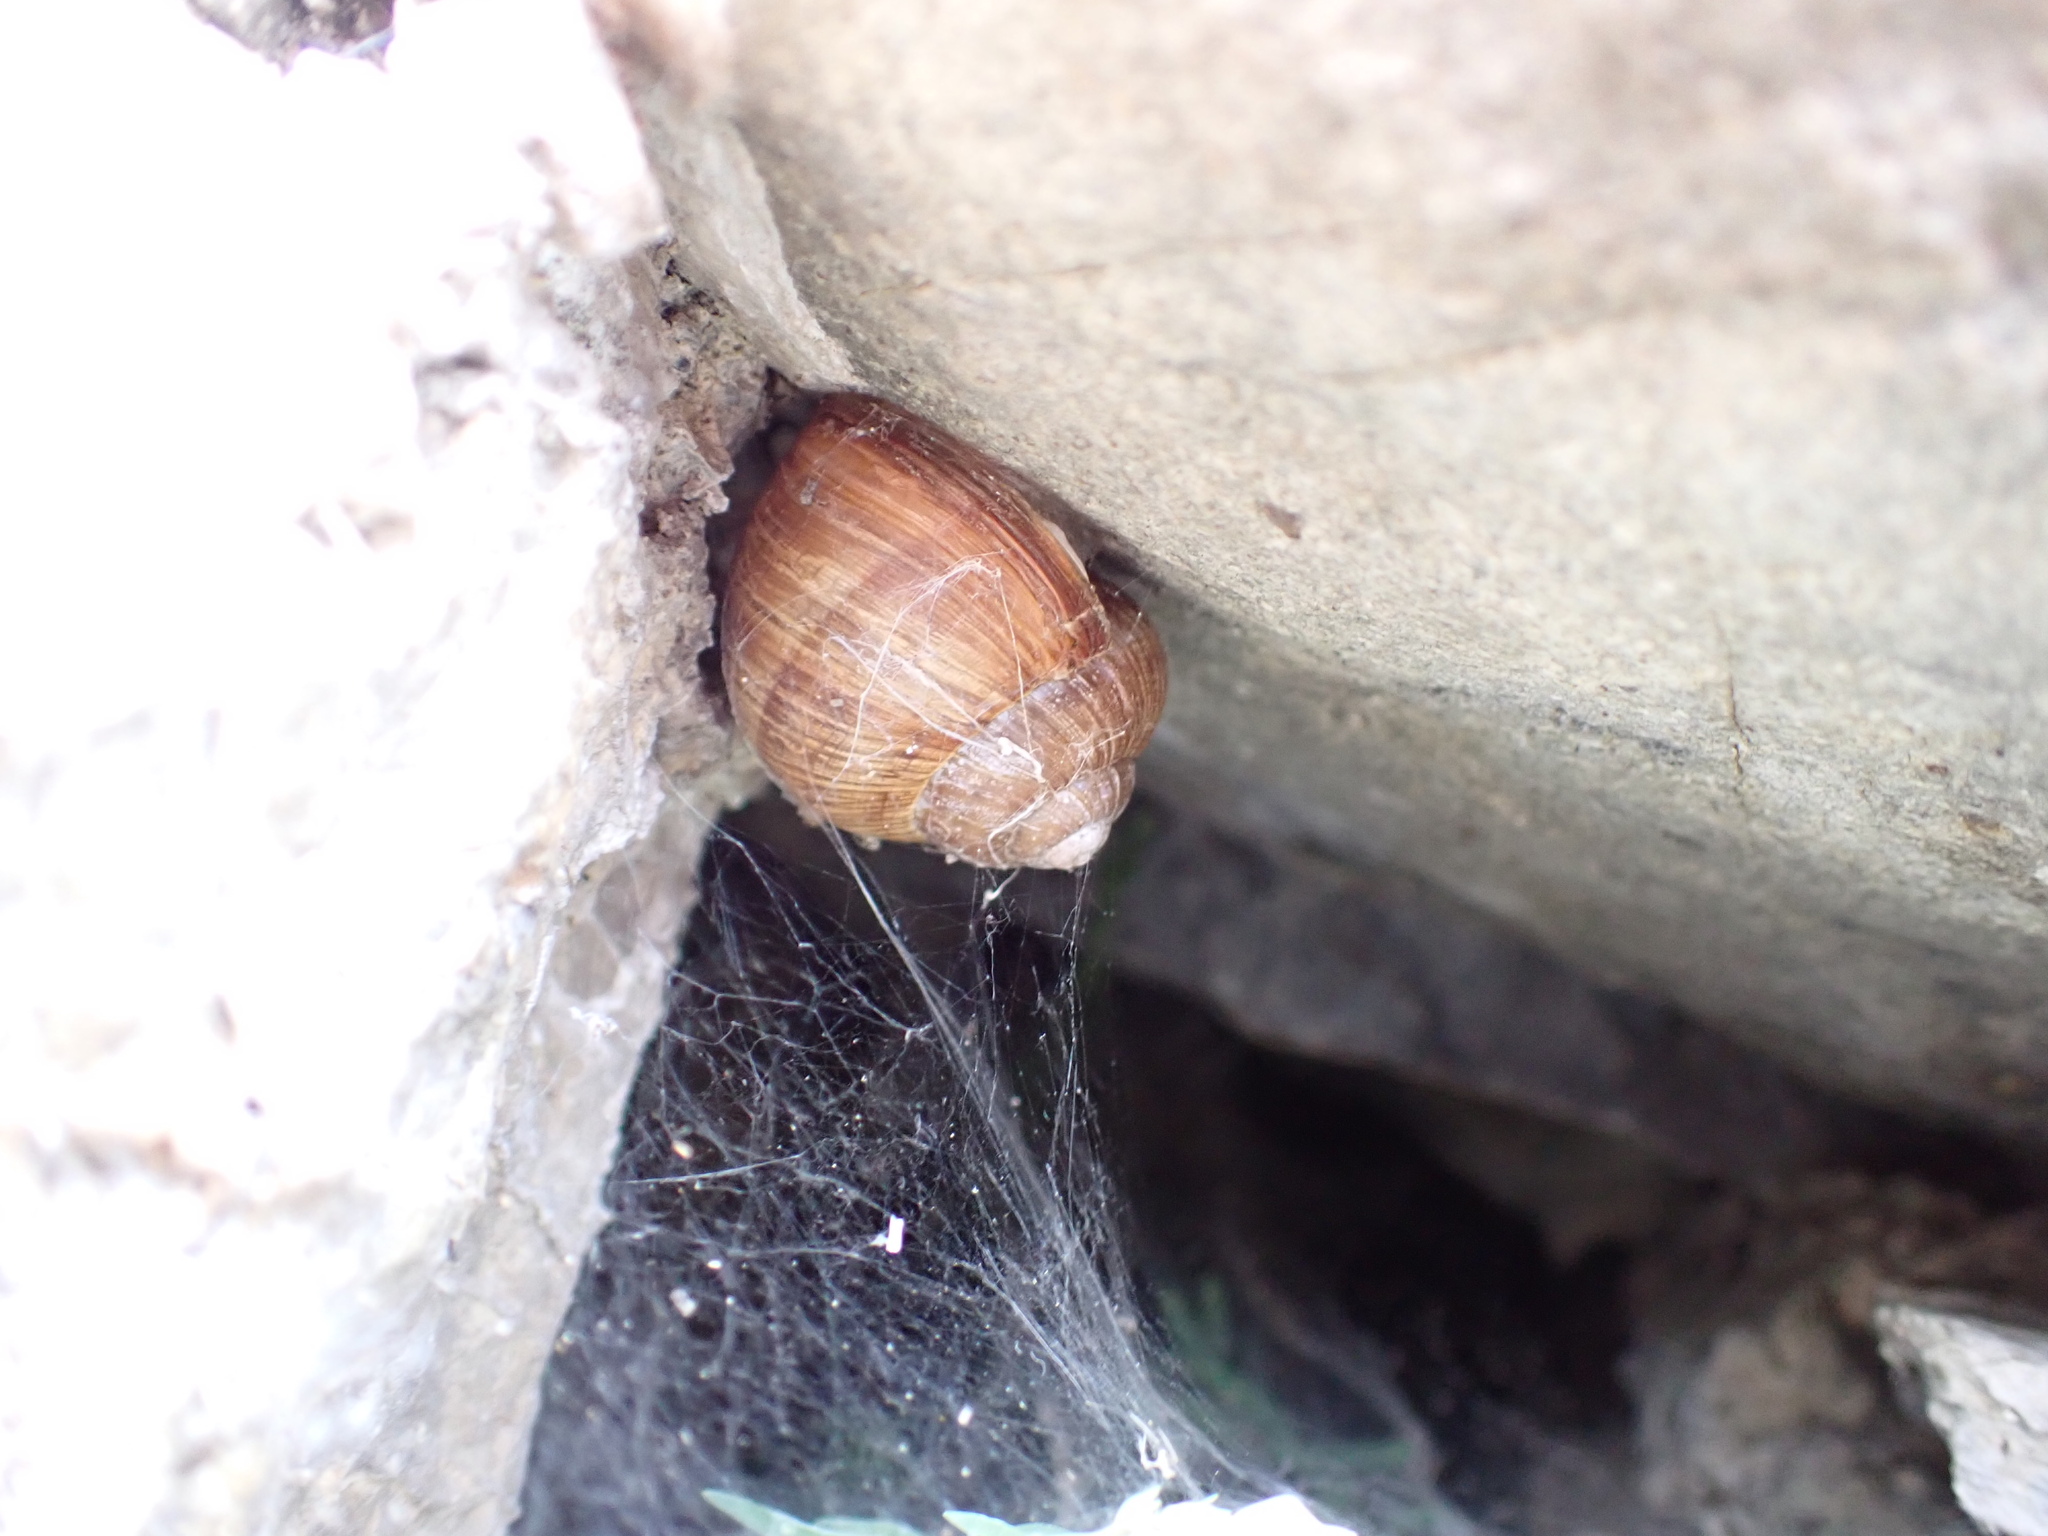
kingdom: Animalia
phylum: Mollusca
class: Gastropoda
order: Stylommatophora
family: Helicidae
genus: Helix
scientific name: Helix pomatia
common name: Roman snail
